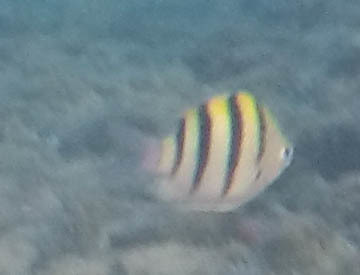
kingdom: Animalia
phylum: Chordata
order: Perciformes
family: Pomacentridae
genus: Abudefduf
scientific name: Abudefduf vaigiensis
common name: Indo-pacific sergeant
